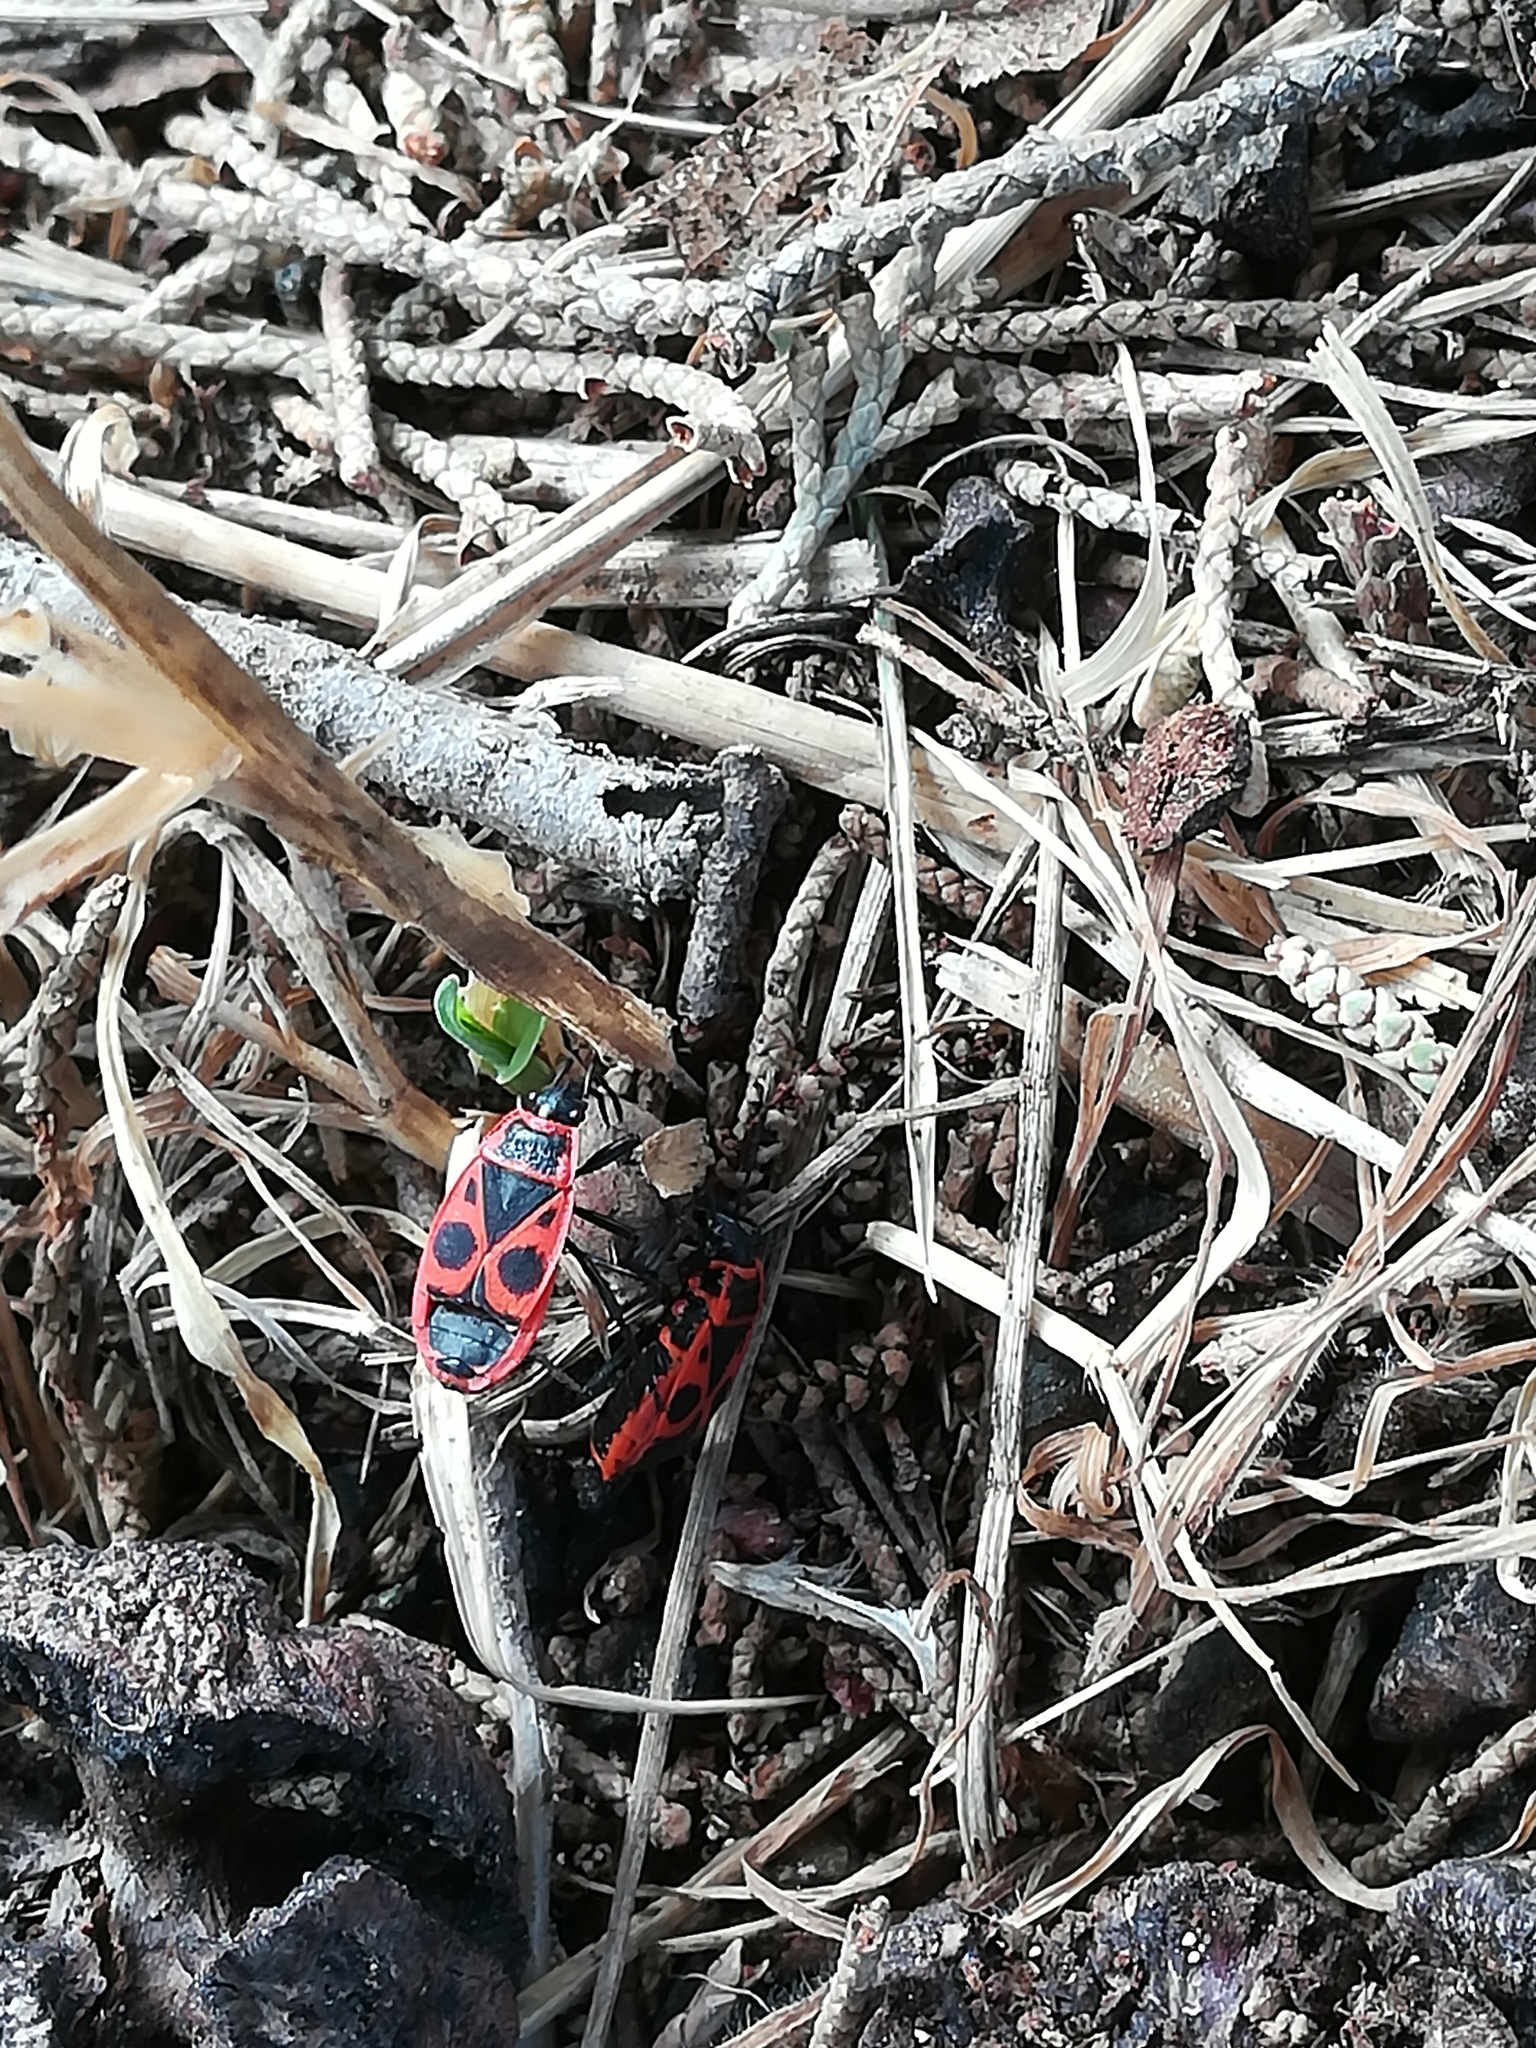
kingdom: Animalia
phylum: Arthropoda
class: Insecta
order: Hemiptera
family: Pyrrhocoridae
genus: Pyrrhocoris
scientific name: Pyrrhocoris apterus
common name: Firebug
